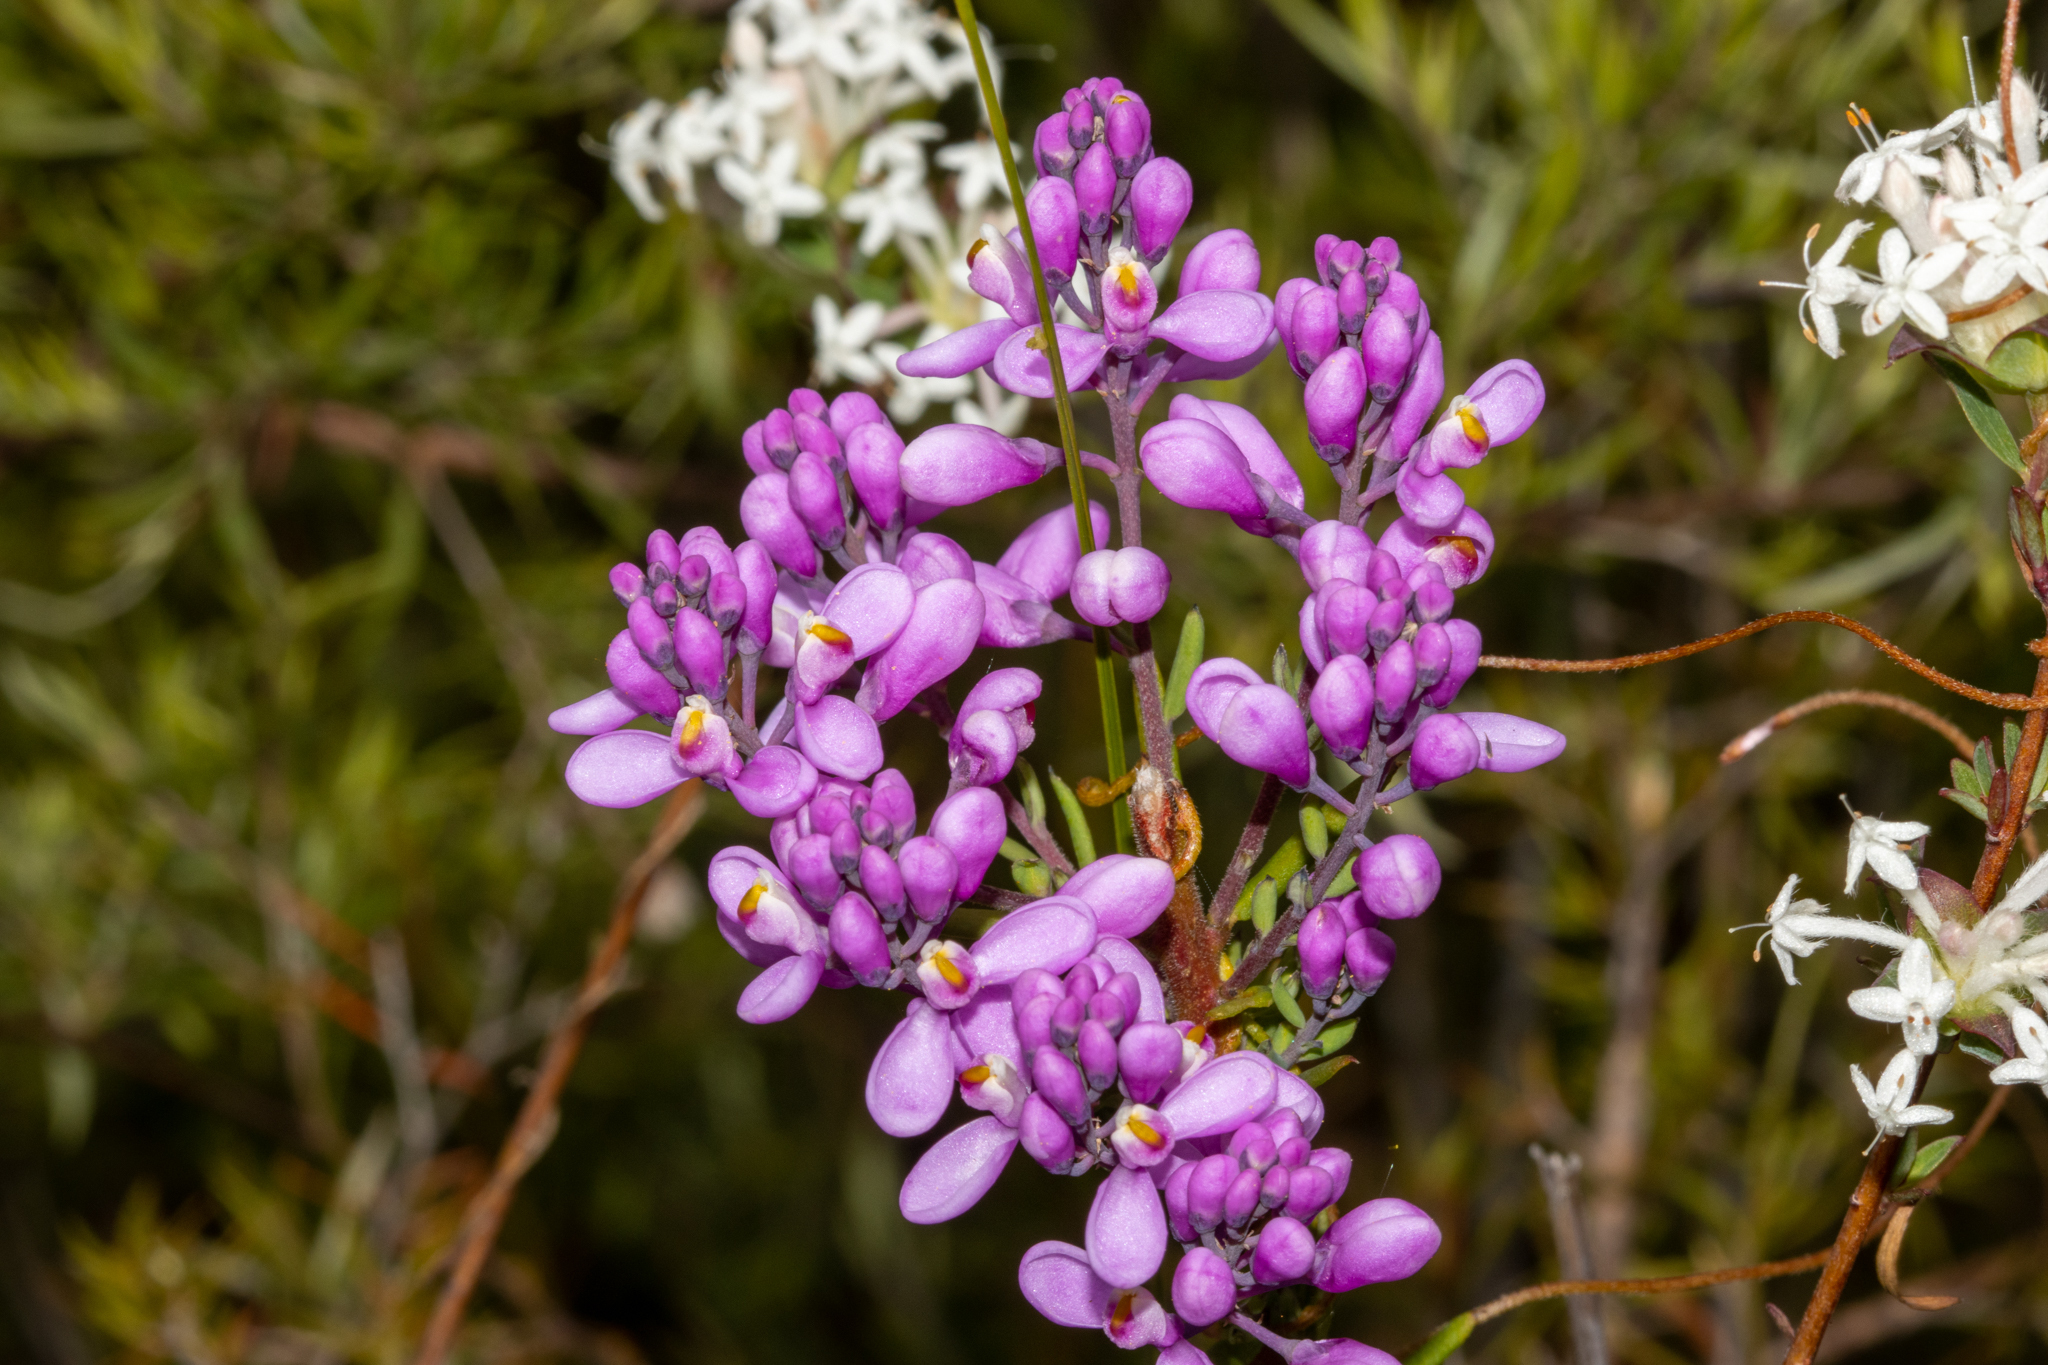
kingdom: Plantae
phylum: Tracheophyta
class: Magnoliopsida
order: Fabales
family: Polygalaceae
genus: Comesperma
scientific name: Comesperma ericinum
